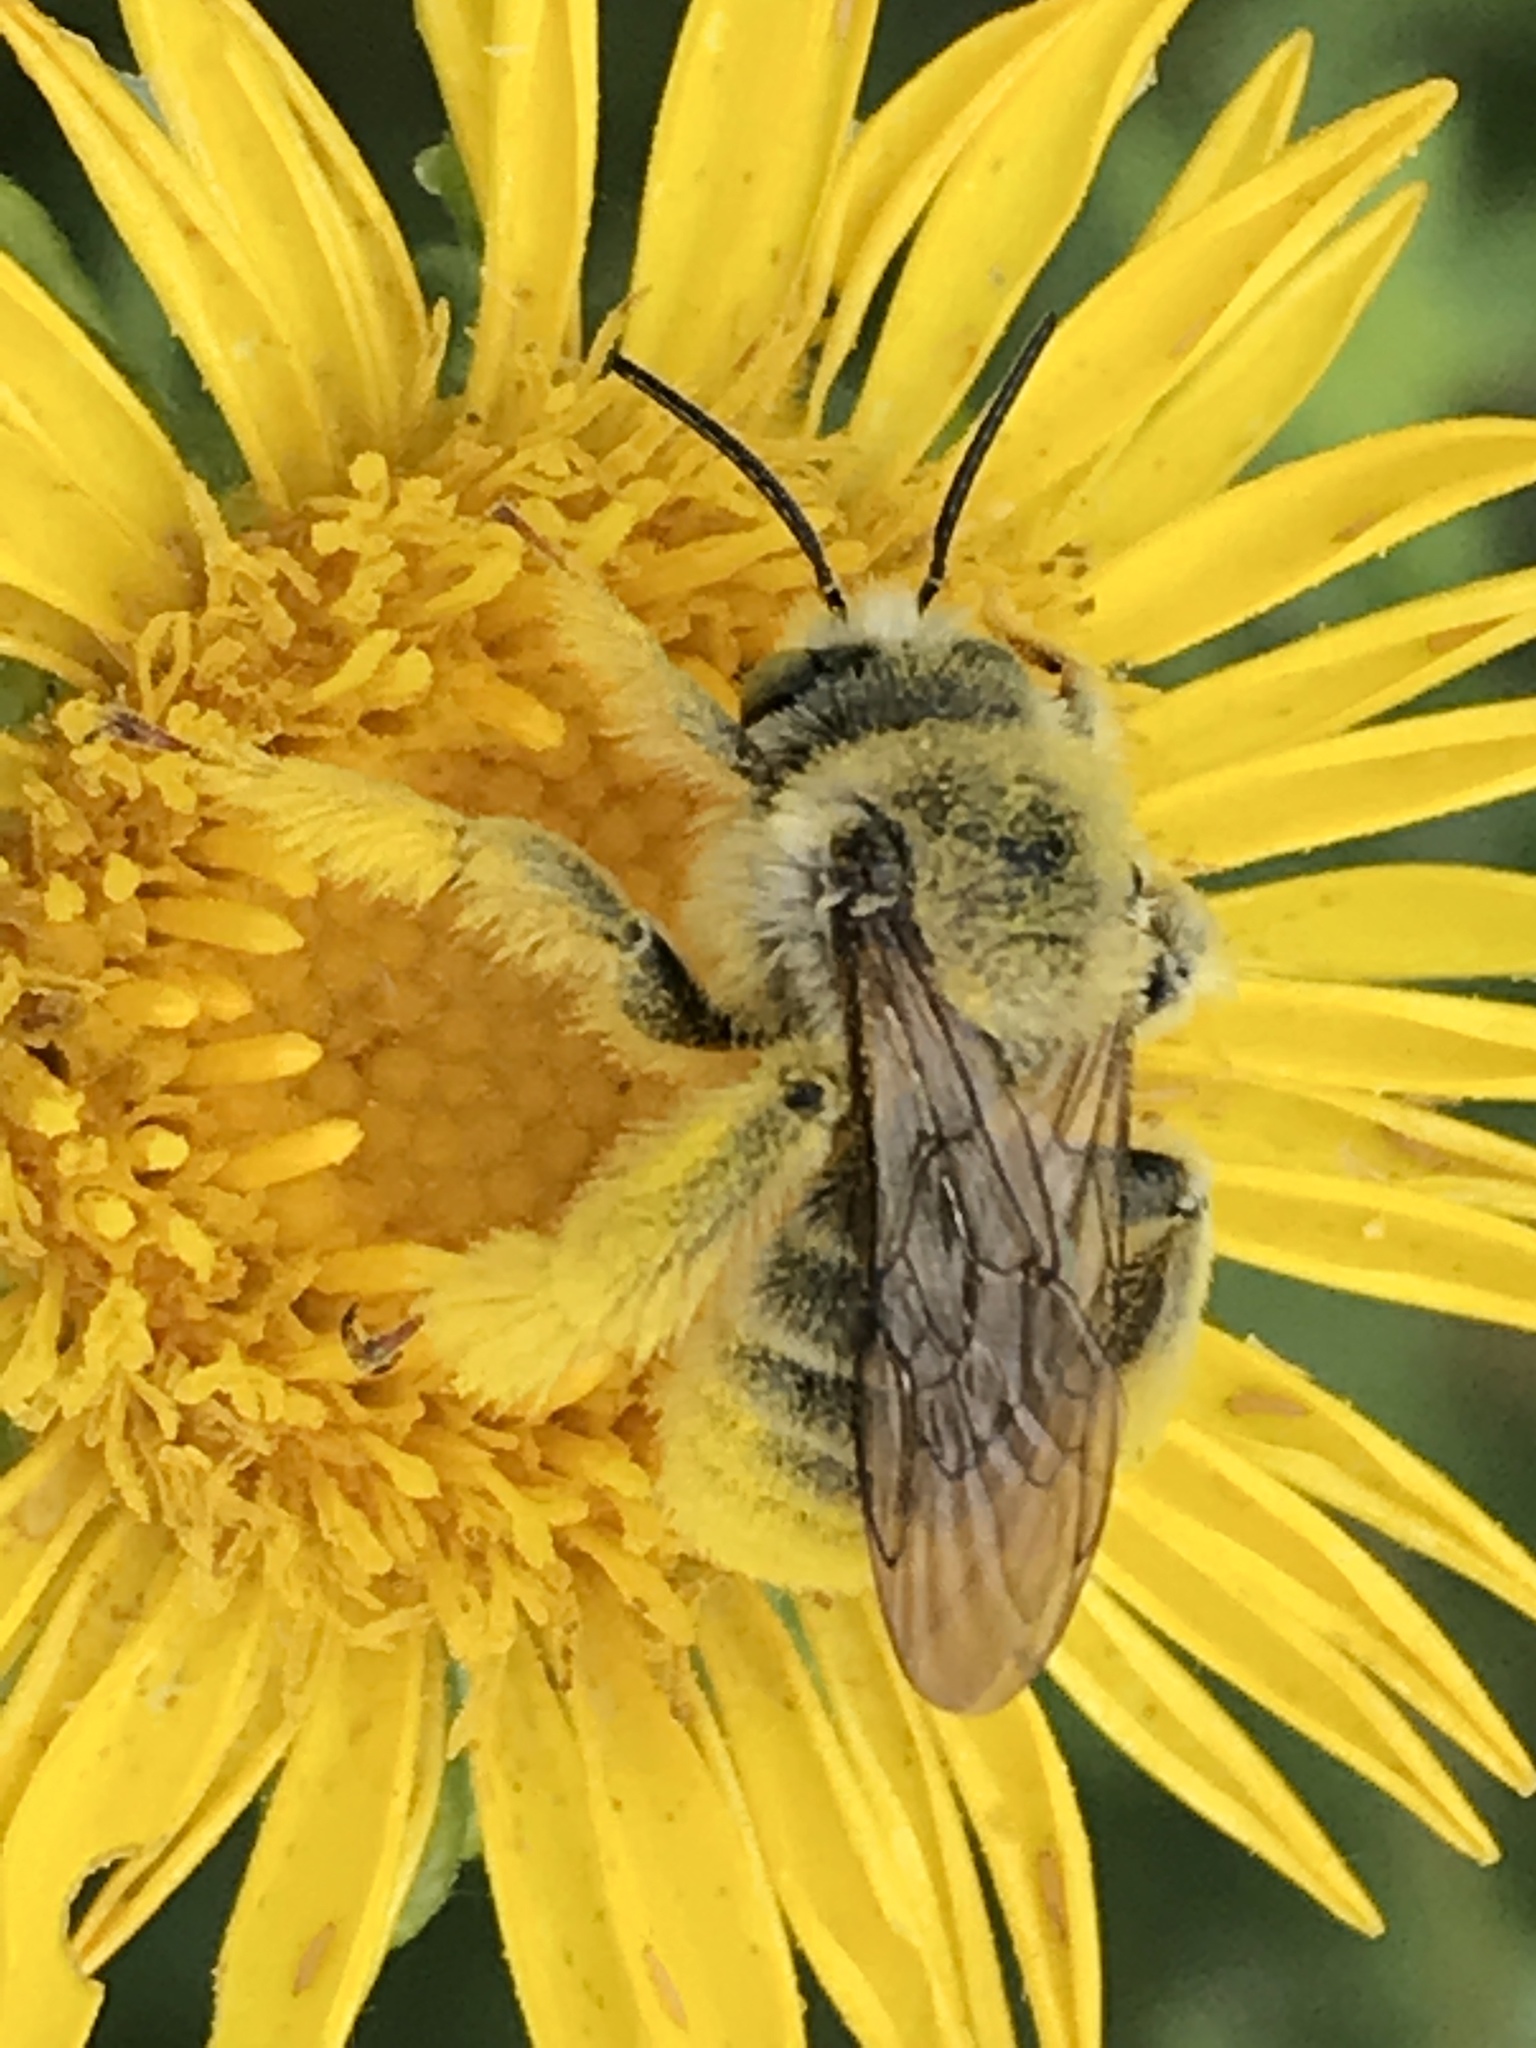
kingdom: Animalia
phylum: Arthropoda
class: Insecta
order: Hymenoptera
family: Apidae
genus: Diadasia
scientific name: Diadasia enavata
